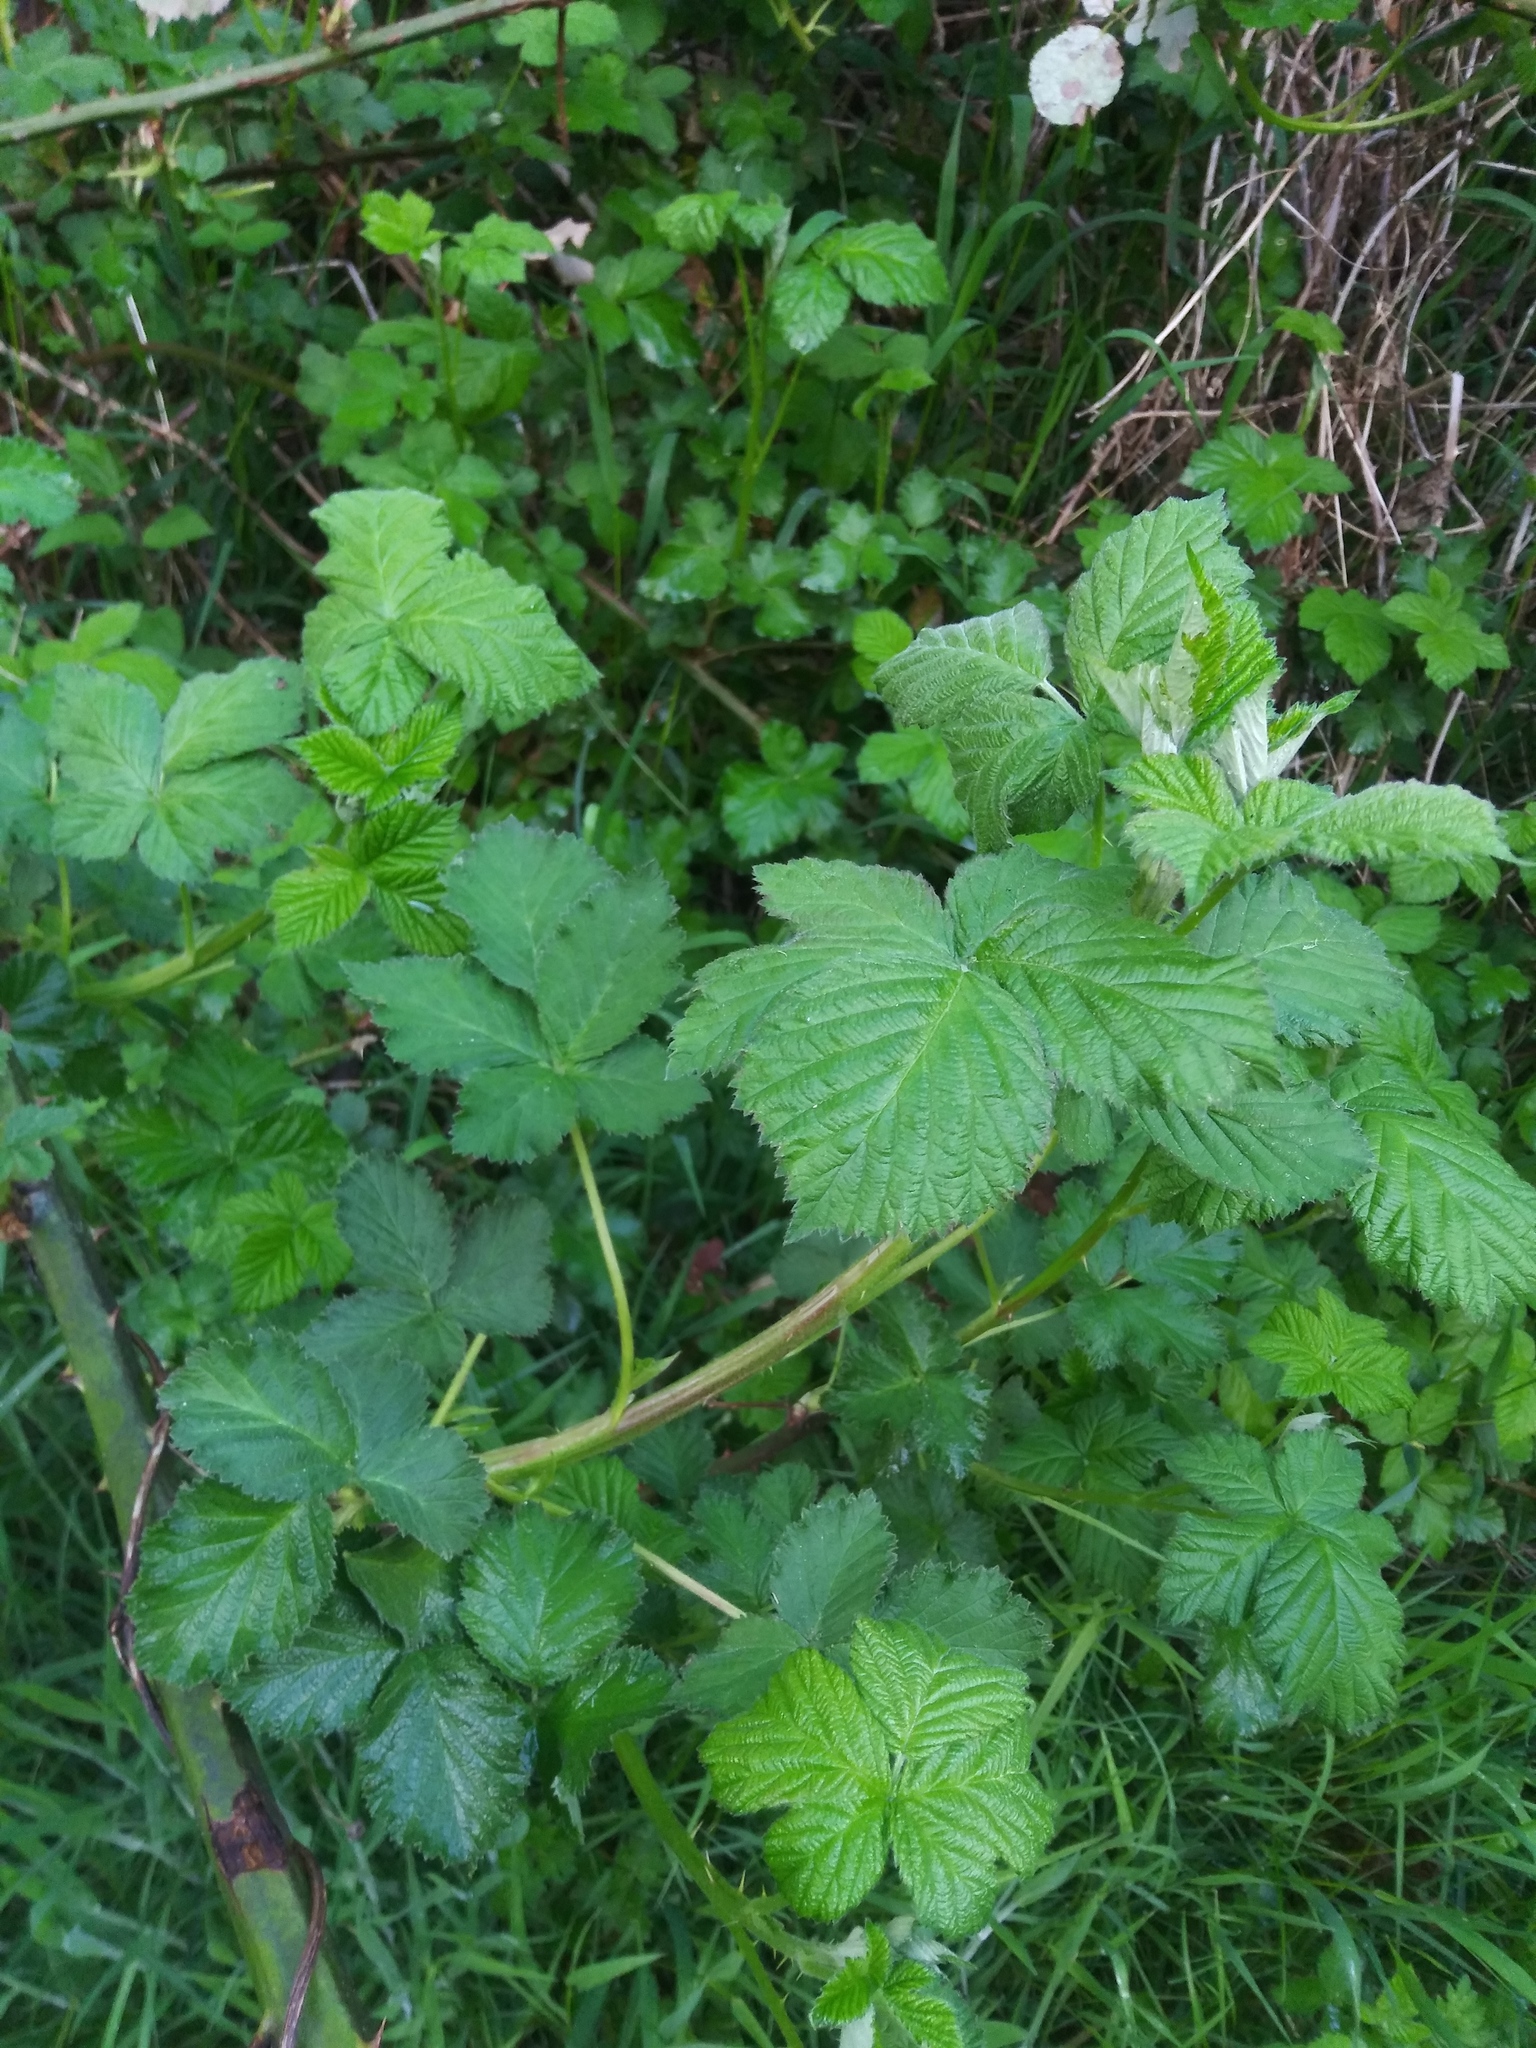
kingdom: Plantae
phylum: Tracheophyta
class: Magnoliopsida
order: Rosales
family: Rosaceae
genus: Rubus
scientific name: Rubus bifrons
